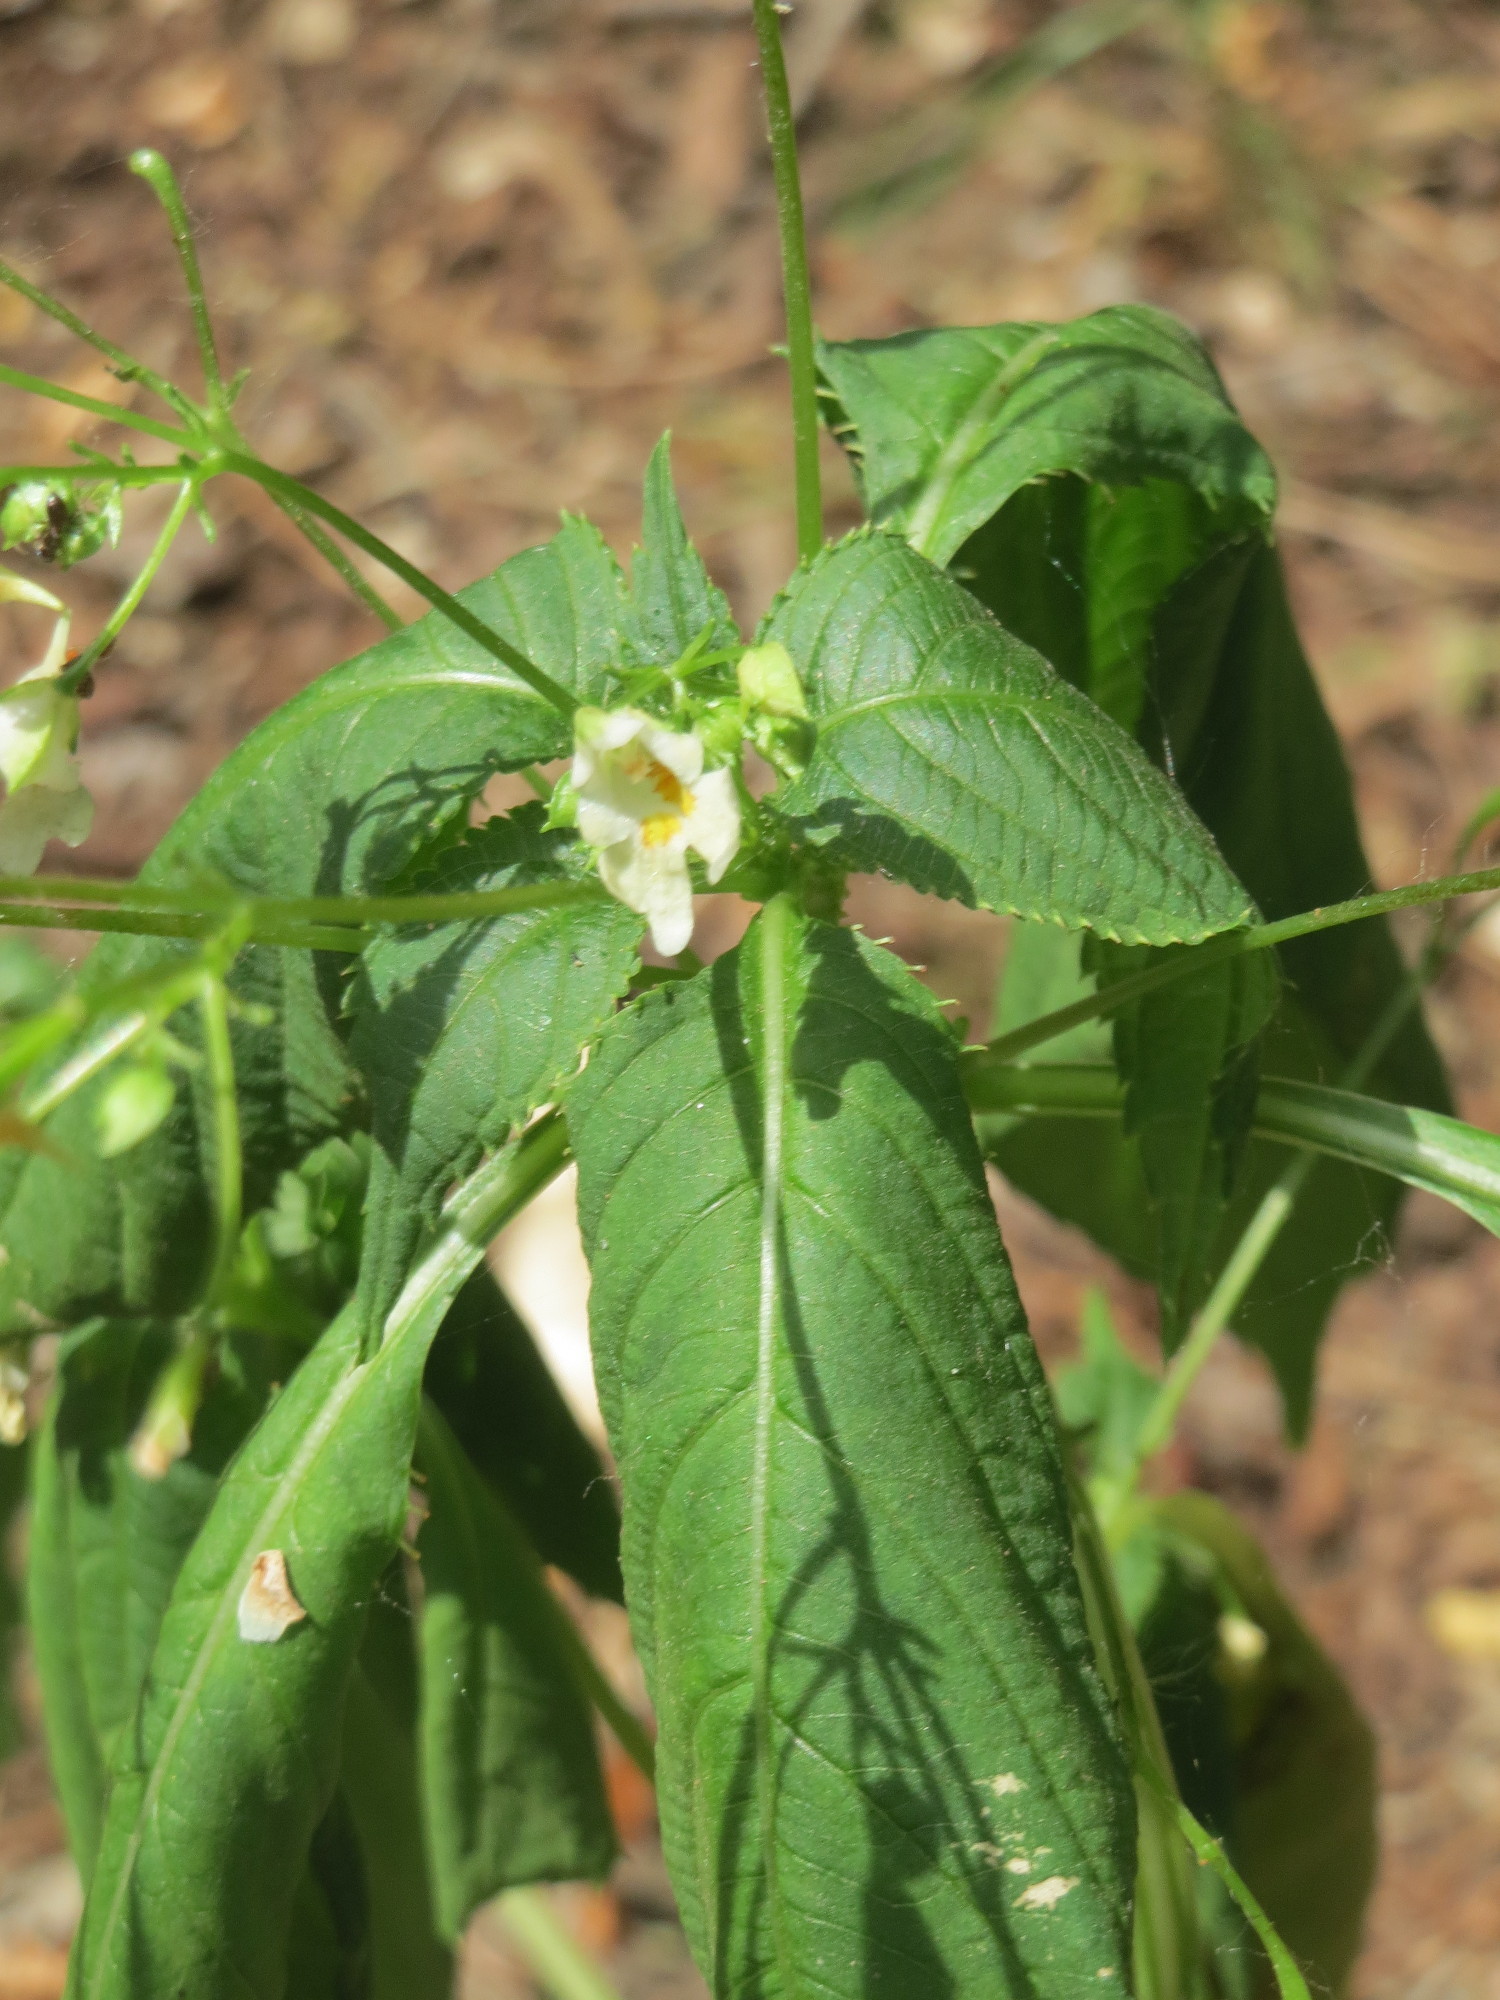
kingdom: Plantae
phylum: Tracheophyta
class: Magnoliopsida
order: Ericales
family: Balsaminaceae
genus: Impatiens
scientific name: Impatiens parviflora
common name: Small balsam
